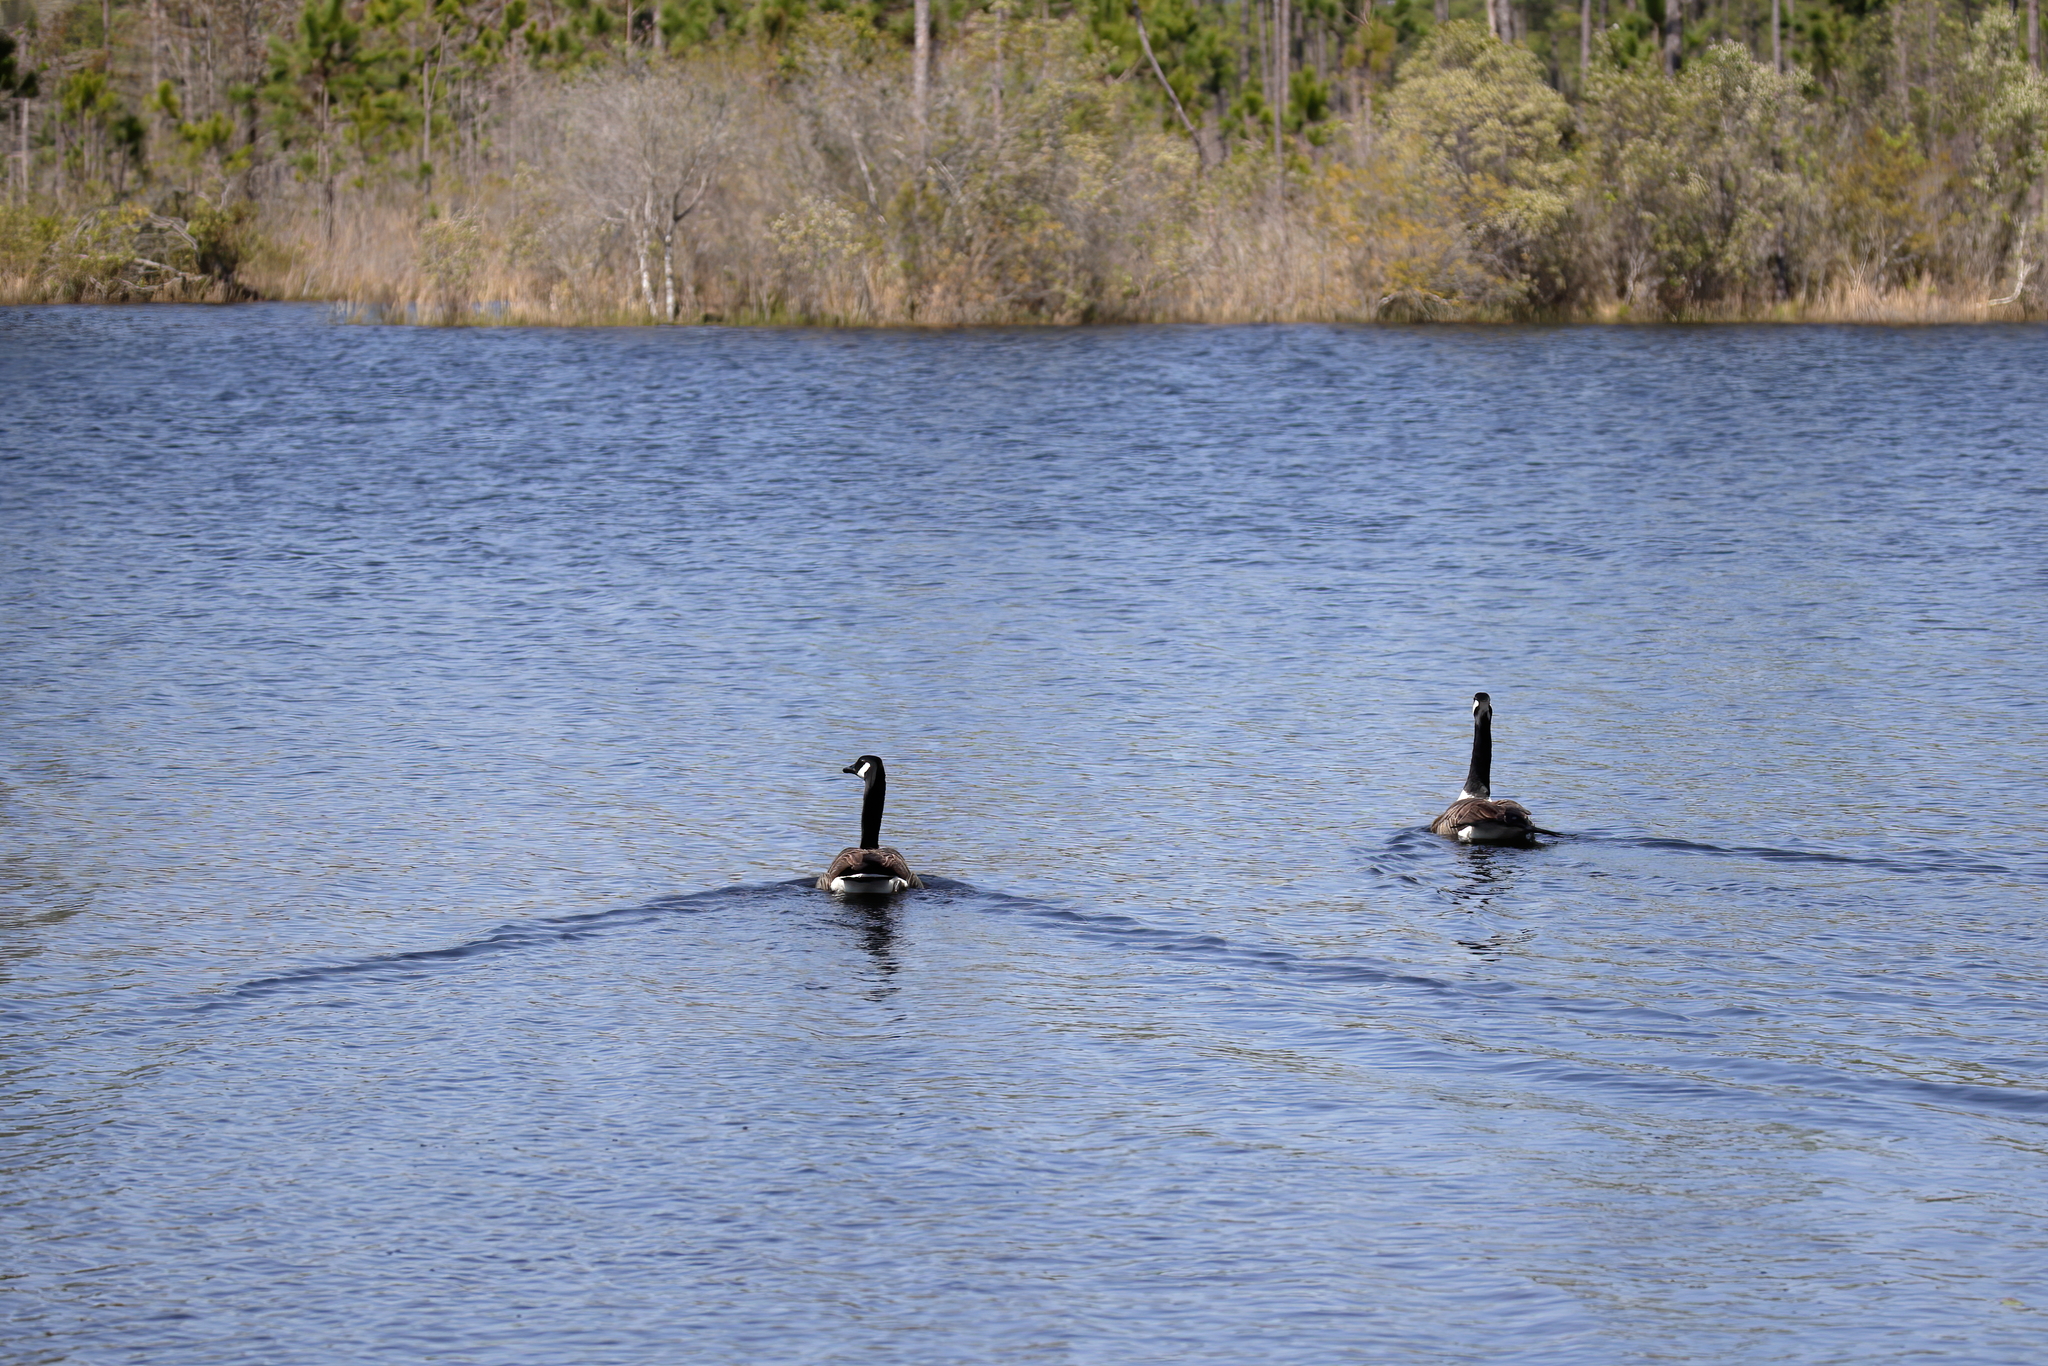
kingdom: Animalia
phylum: Chordata
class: Aves
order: Anseriformes
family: Anatidae
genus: Branta
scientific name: Branta canadensis
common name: Canada goose
